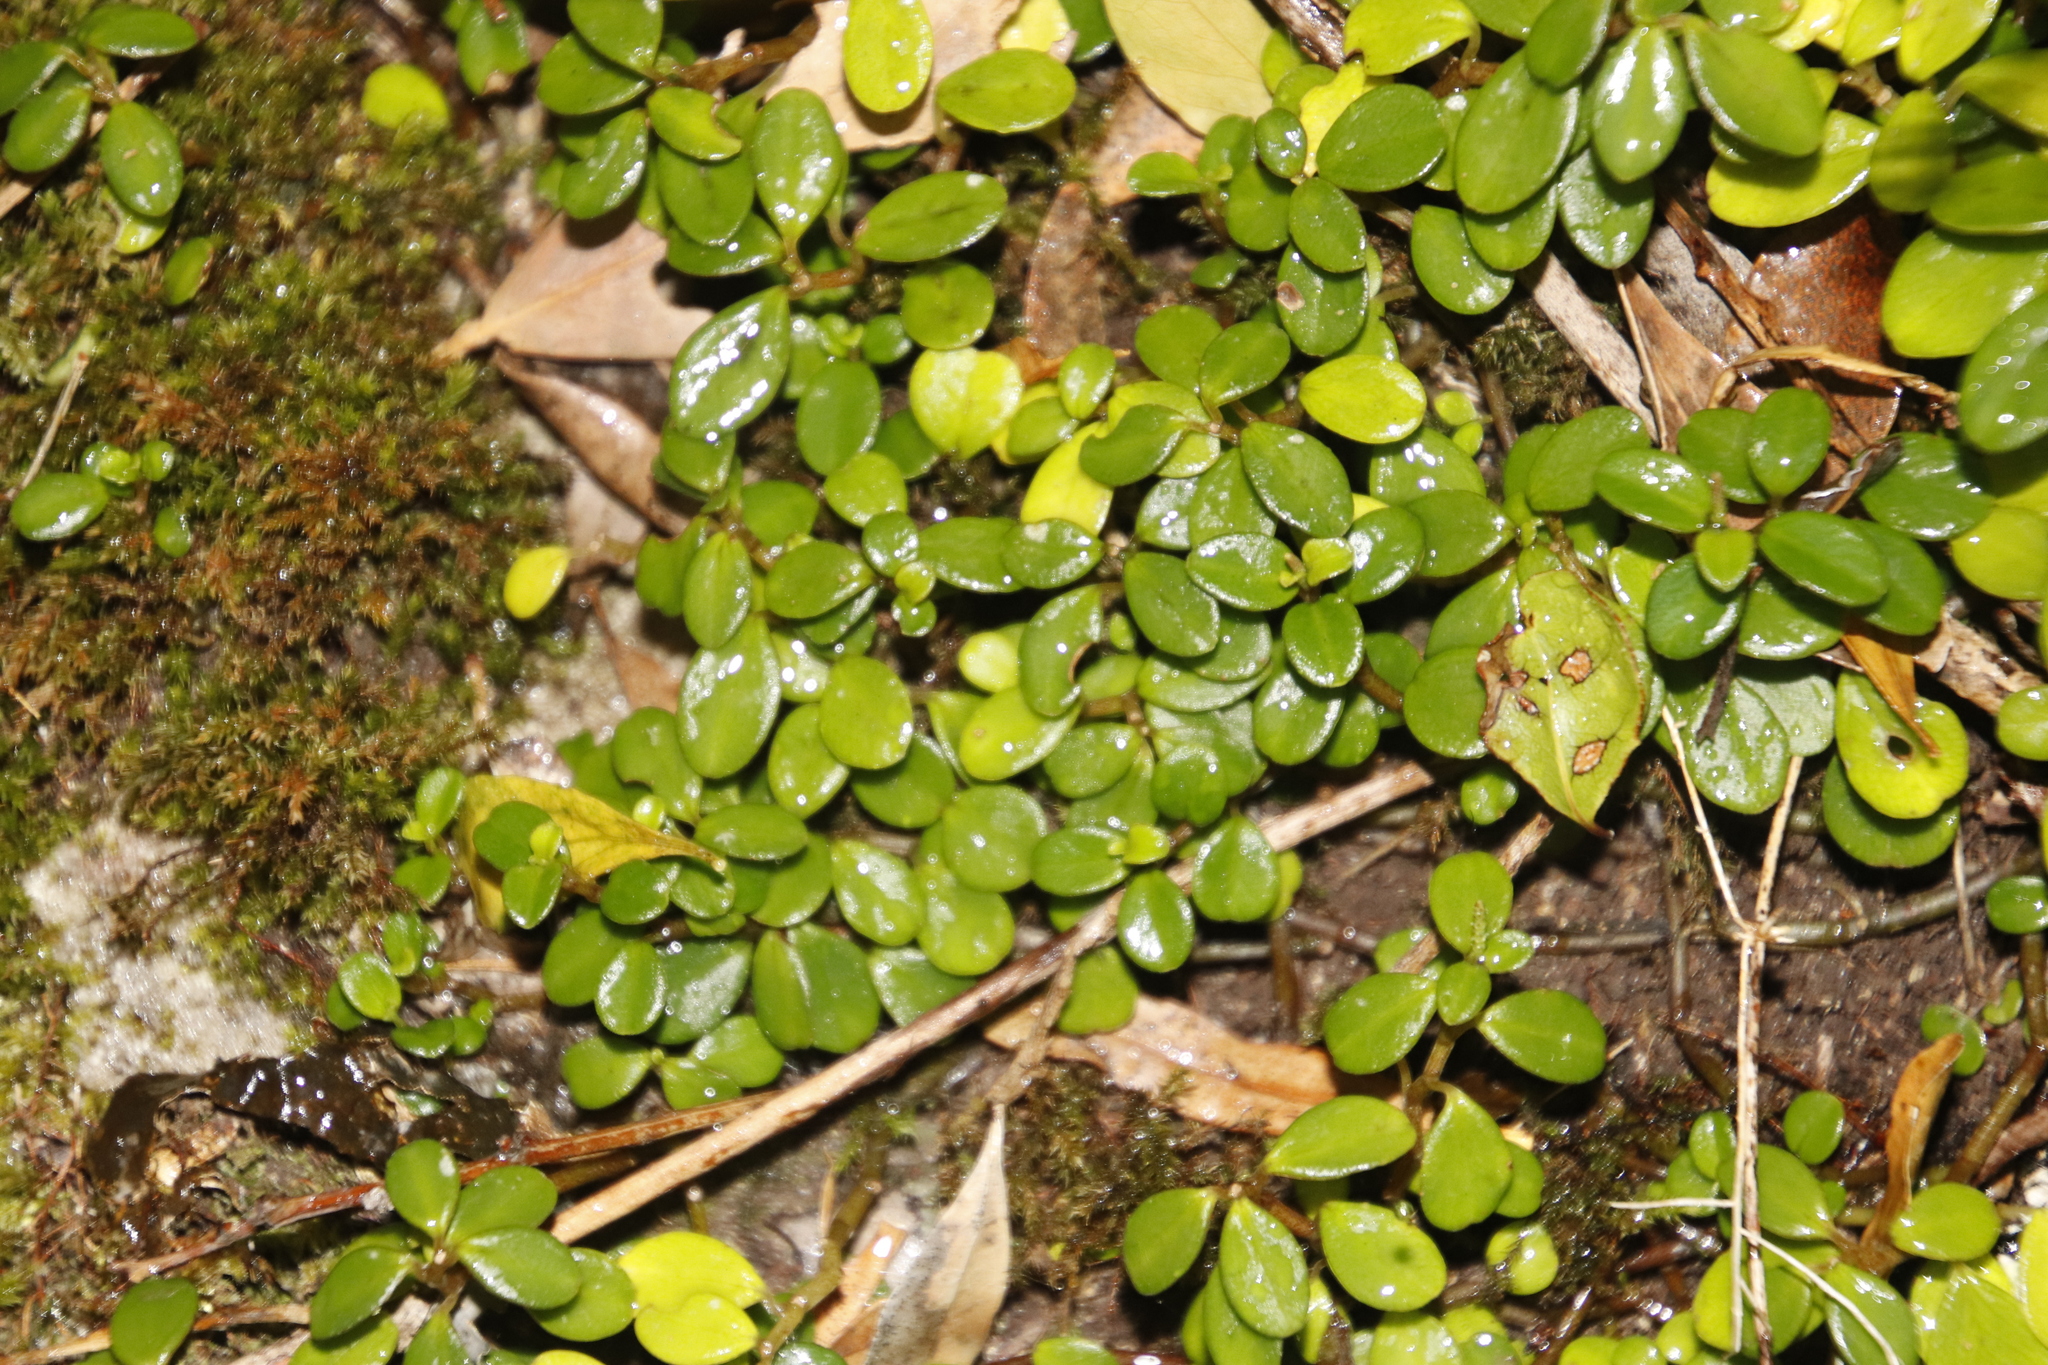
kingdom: Plantae
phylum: Tracheophyta
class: Magnoliopsida
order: Piperales
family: Piperaceae
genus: Peperomia
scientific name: Peperomia retusa
